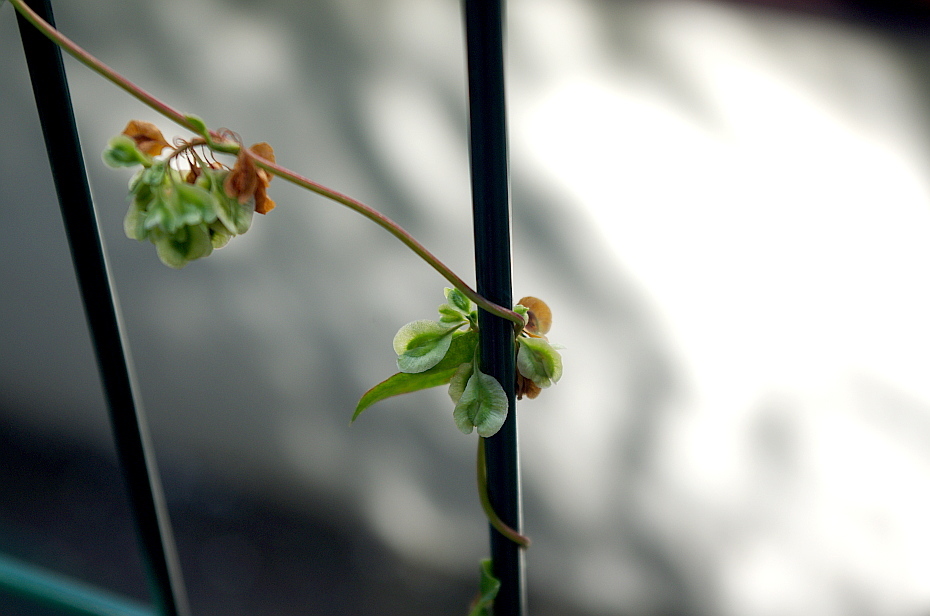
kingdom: Plantae
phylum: Tracheophyta
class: Magnoliopsida
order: Caryophyllales
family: Polygonaceae
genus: Fallopia
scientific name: Fallopia dumetorum
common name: Copse-bindweed
